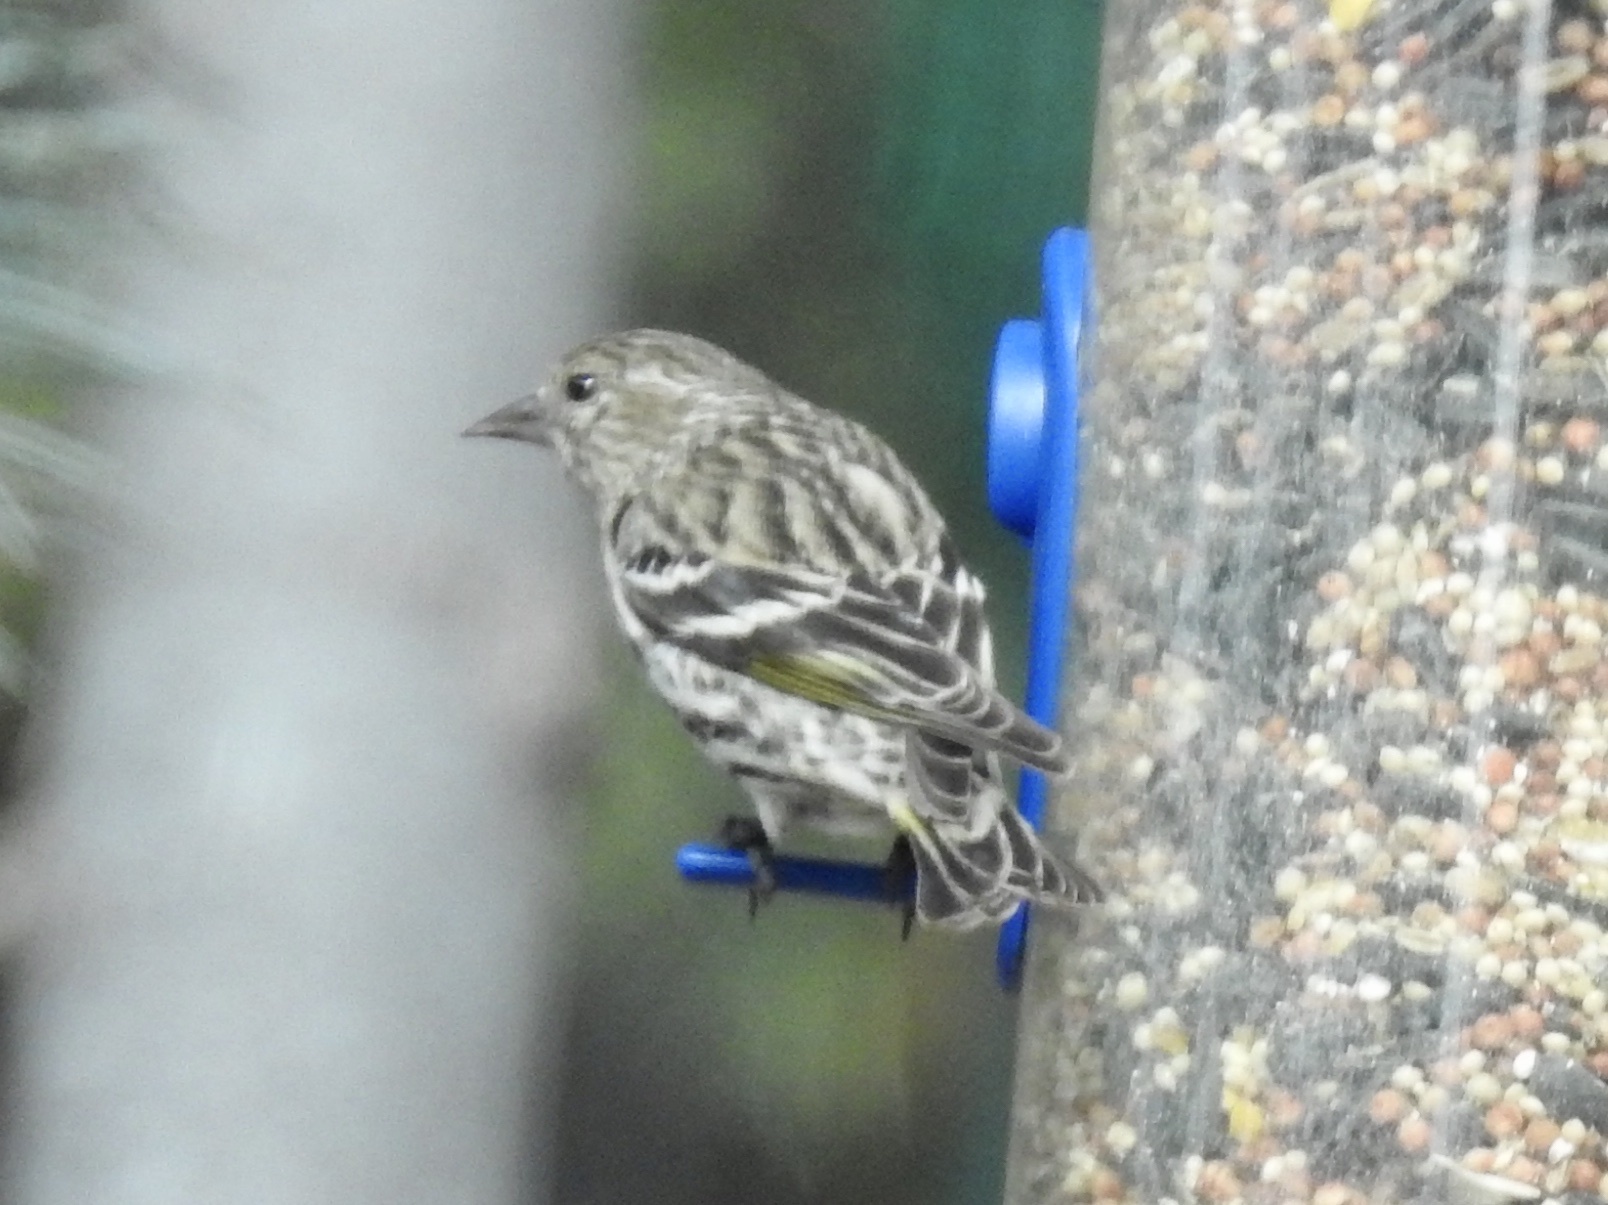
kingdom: Animalia
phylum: Chordata
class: Aves
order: Passeriformes
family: Fringillidae
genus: Spinus
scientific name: Spinus pinus
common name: Pine siskin
